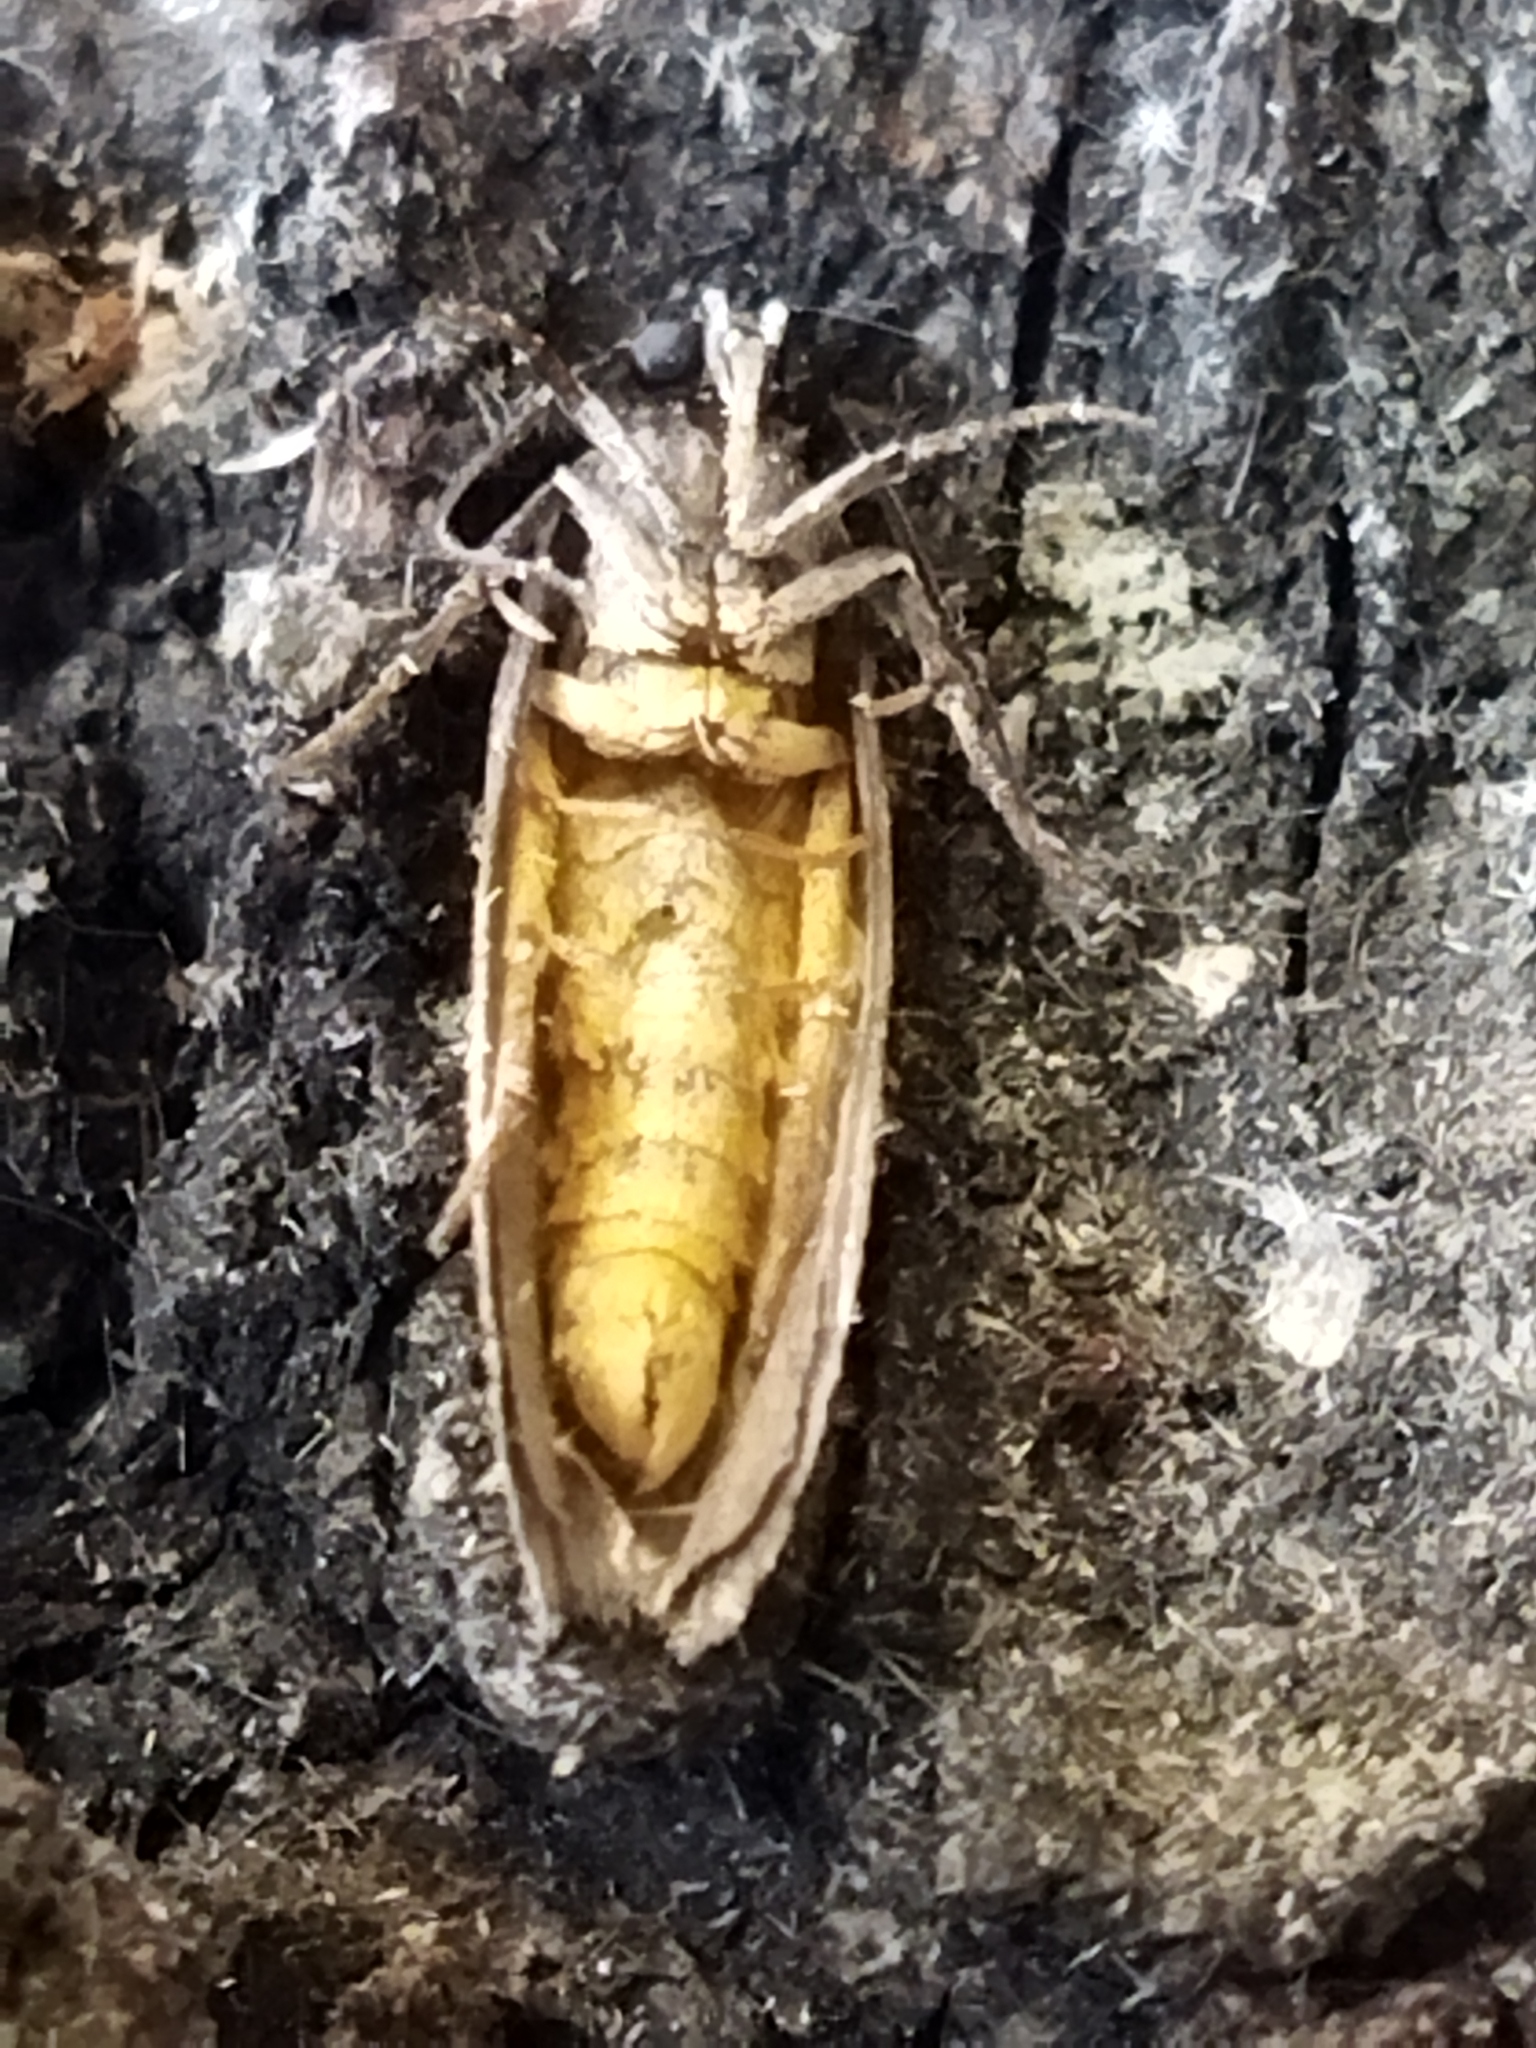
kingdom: Animalia
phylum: Arthropoda
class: Insecta
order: Lepidoptera
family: Ethmiidae
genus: Ethmia
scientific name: Ethmia bipunctella
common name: Bordered ermel
